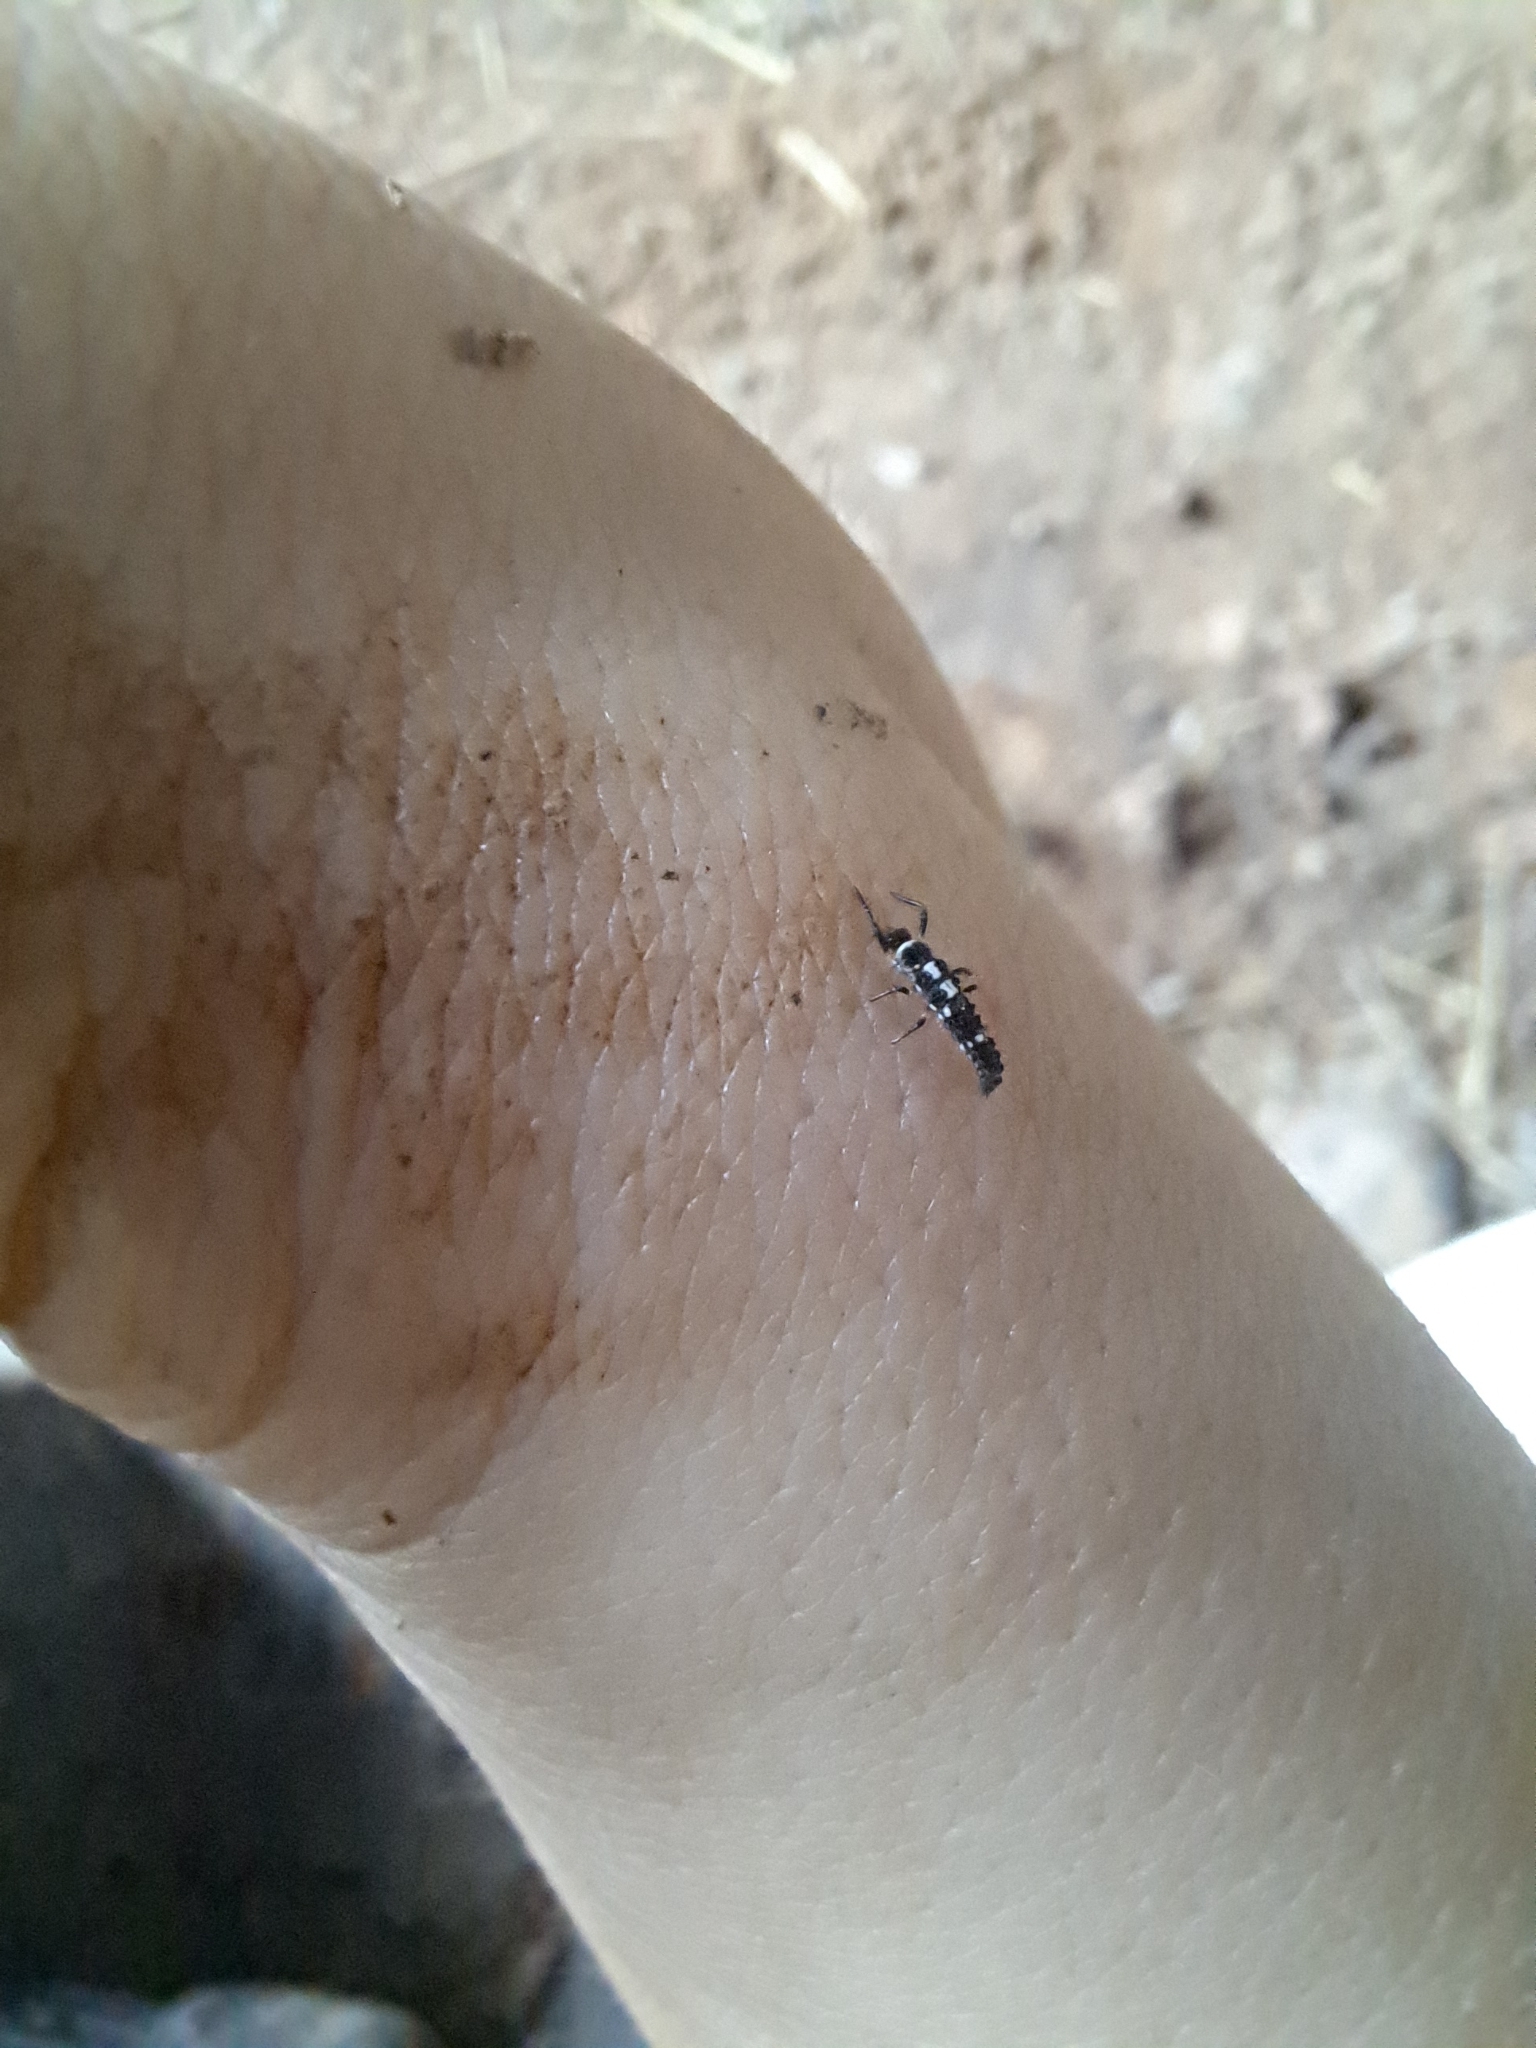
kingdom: Animalia
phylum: Arthropoda
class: Insecta
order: Coleoptera
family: Coccinellidae
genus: Propylaea
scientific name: Propylaea quatuordecimpunctata
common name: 14-spotted ladybird beetle
